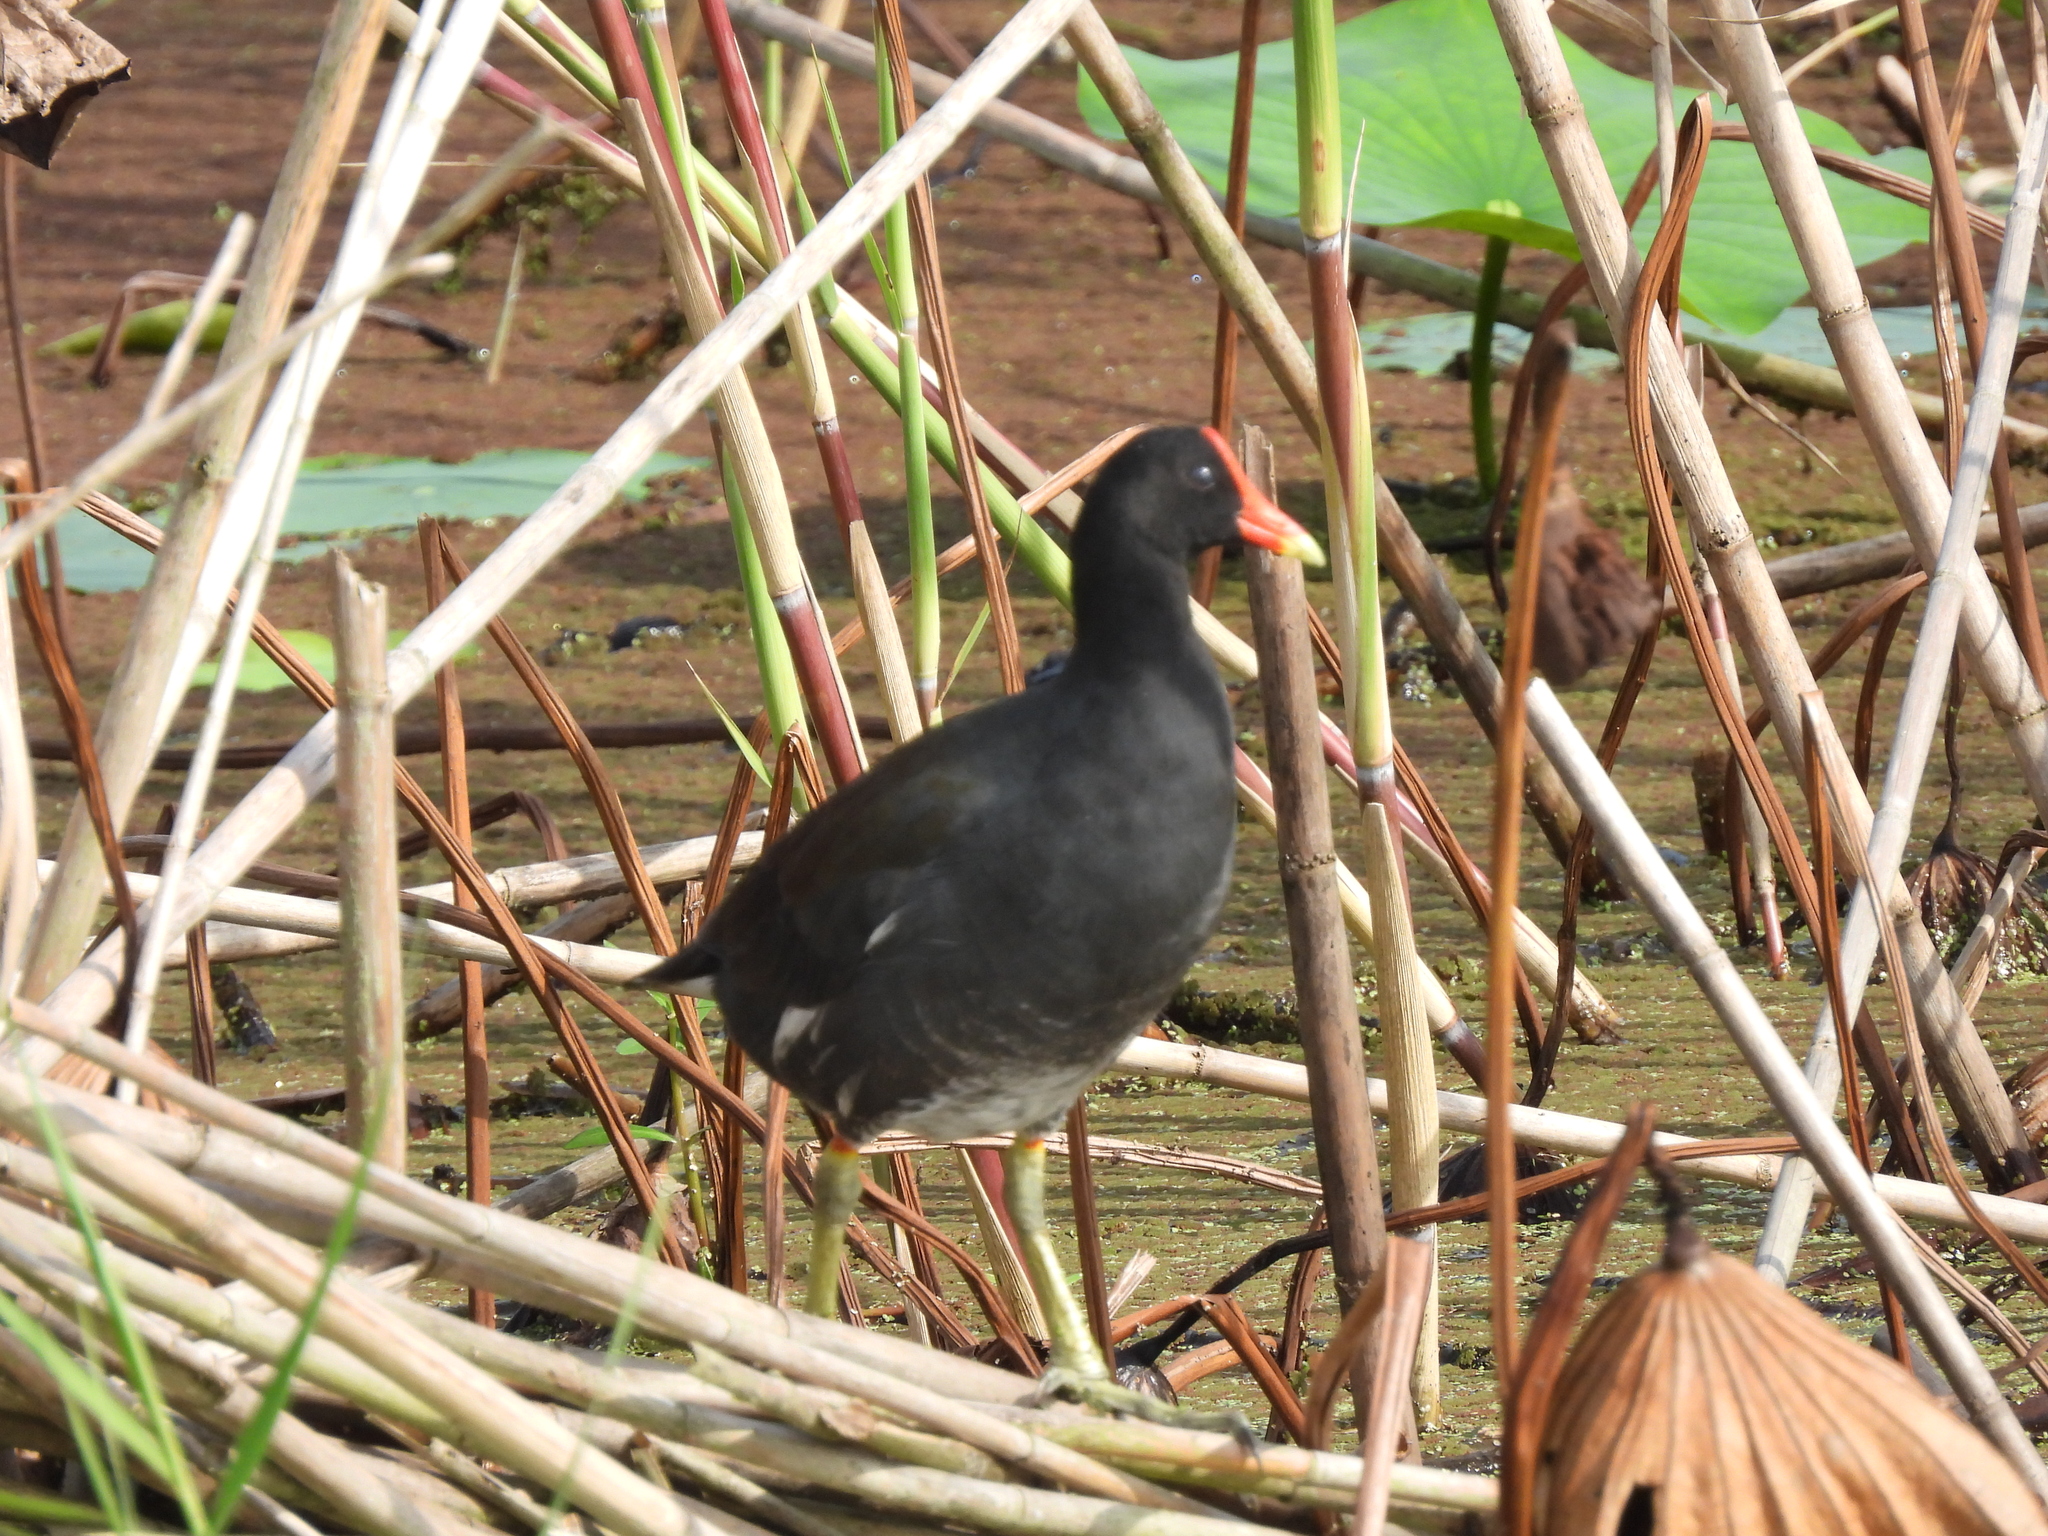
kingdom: Animalia
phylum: Chordata
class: Aves
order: Gruiformes
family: Rallidae
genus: Gallinula
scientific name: Gallinula chloropus
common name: Common moorhen
